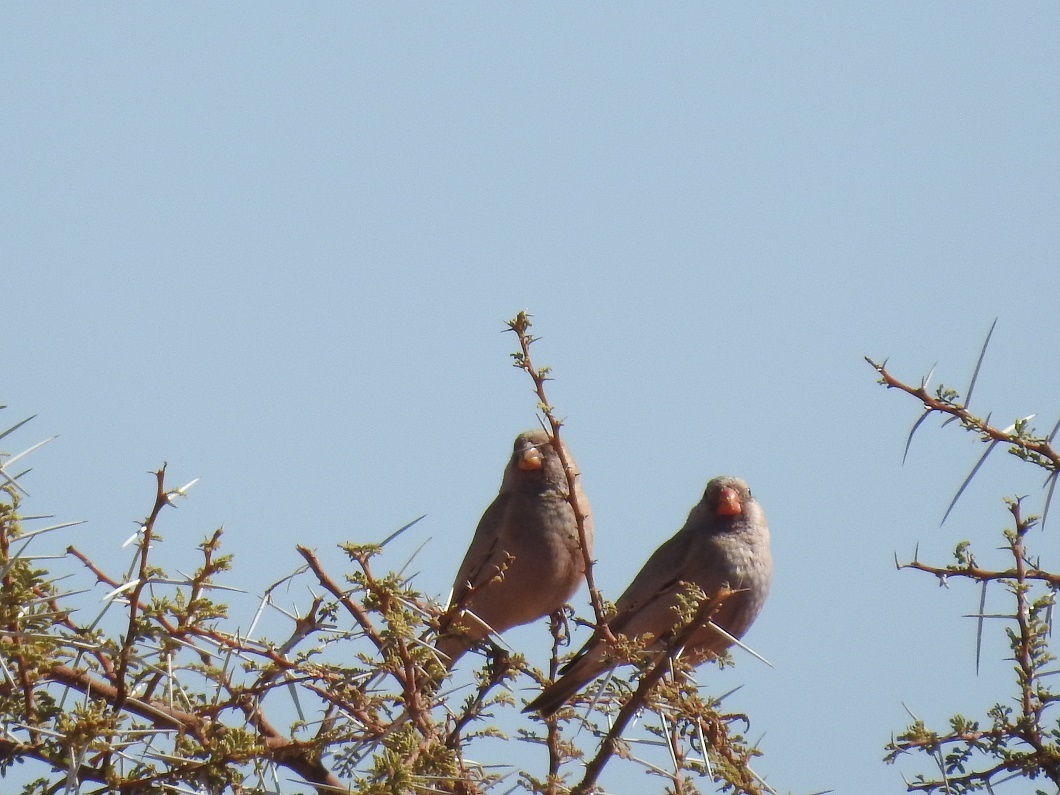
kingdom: Animalia
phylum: Chordata
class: Aves
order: Passeriformes
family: Fringillidae
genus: Bucanetes
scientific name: Bucanetes githagineus
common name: Trumpeter finch
